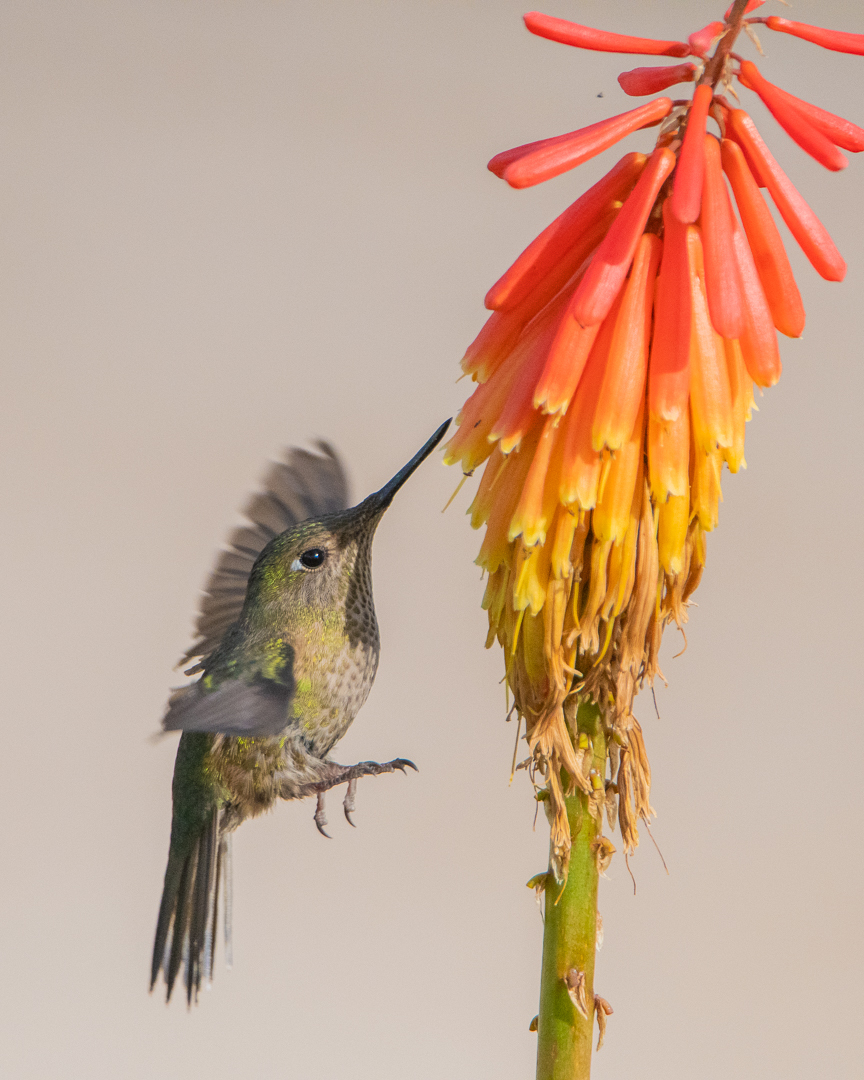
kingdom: Animalia
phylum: Chordata
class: Aves
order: Apodiformes
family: Trochilidae
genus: Sephanoides
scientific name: Sephanoides sephaniodes
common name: Green-backed firecrown
